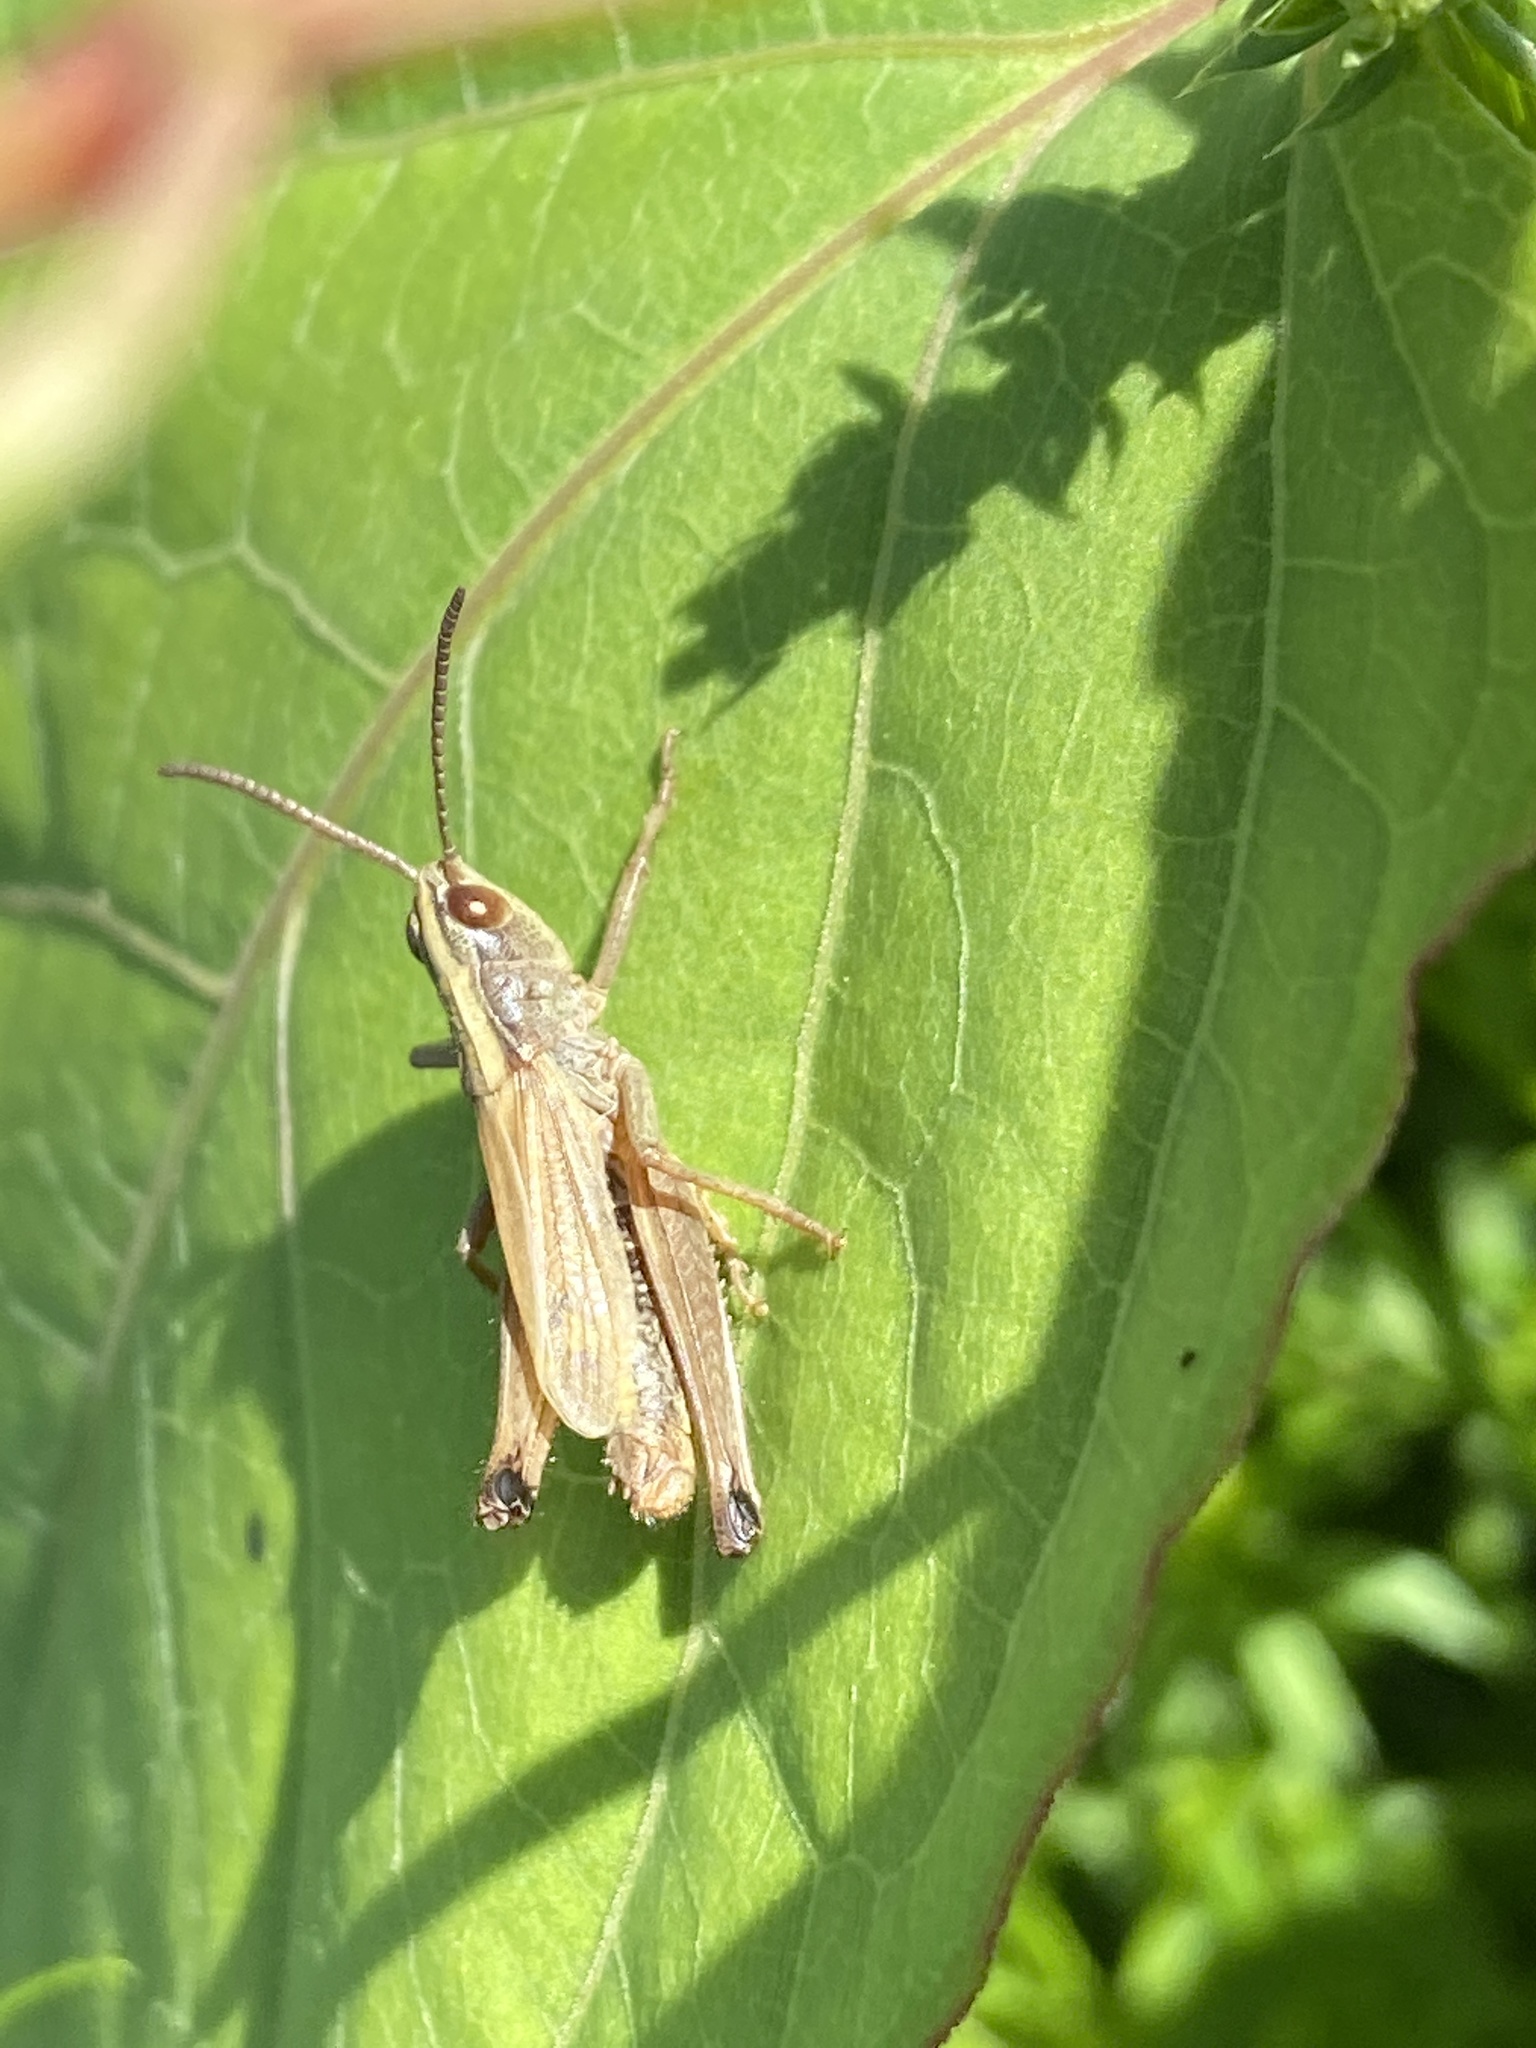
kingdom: Animalia
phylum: Arthropoda
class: Insecta
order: Orthoptera
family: Acrididae
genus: Pseudochorthippus
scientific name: Pseudochorthippus parallelus
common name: Meadow grasshopper
